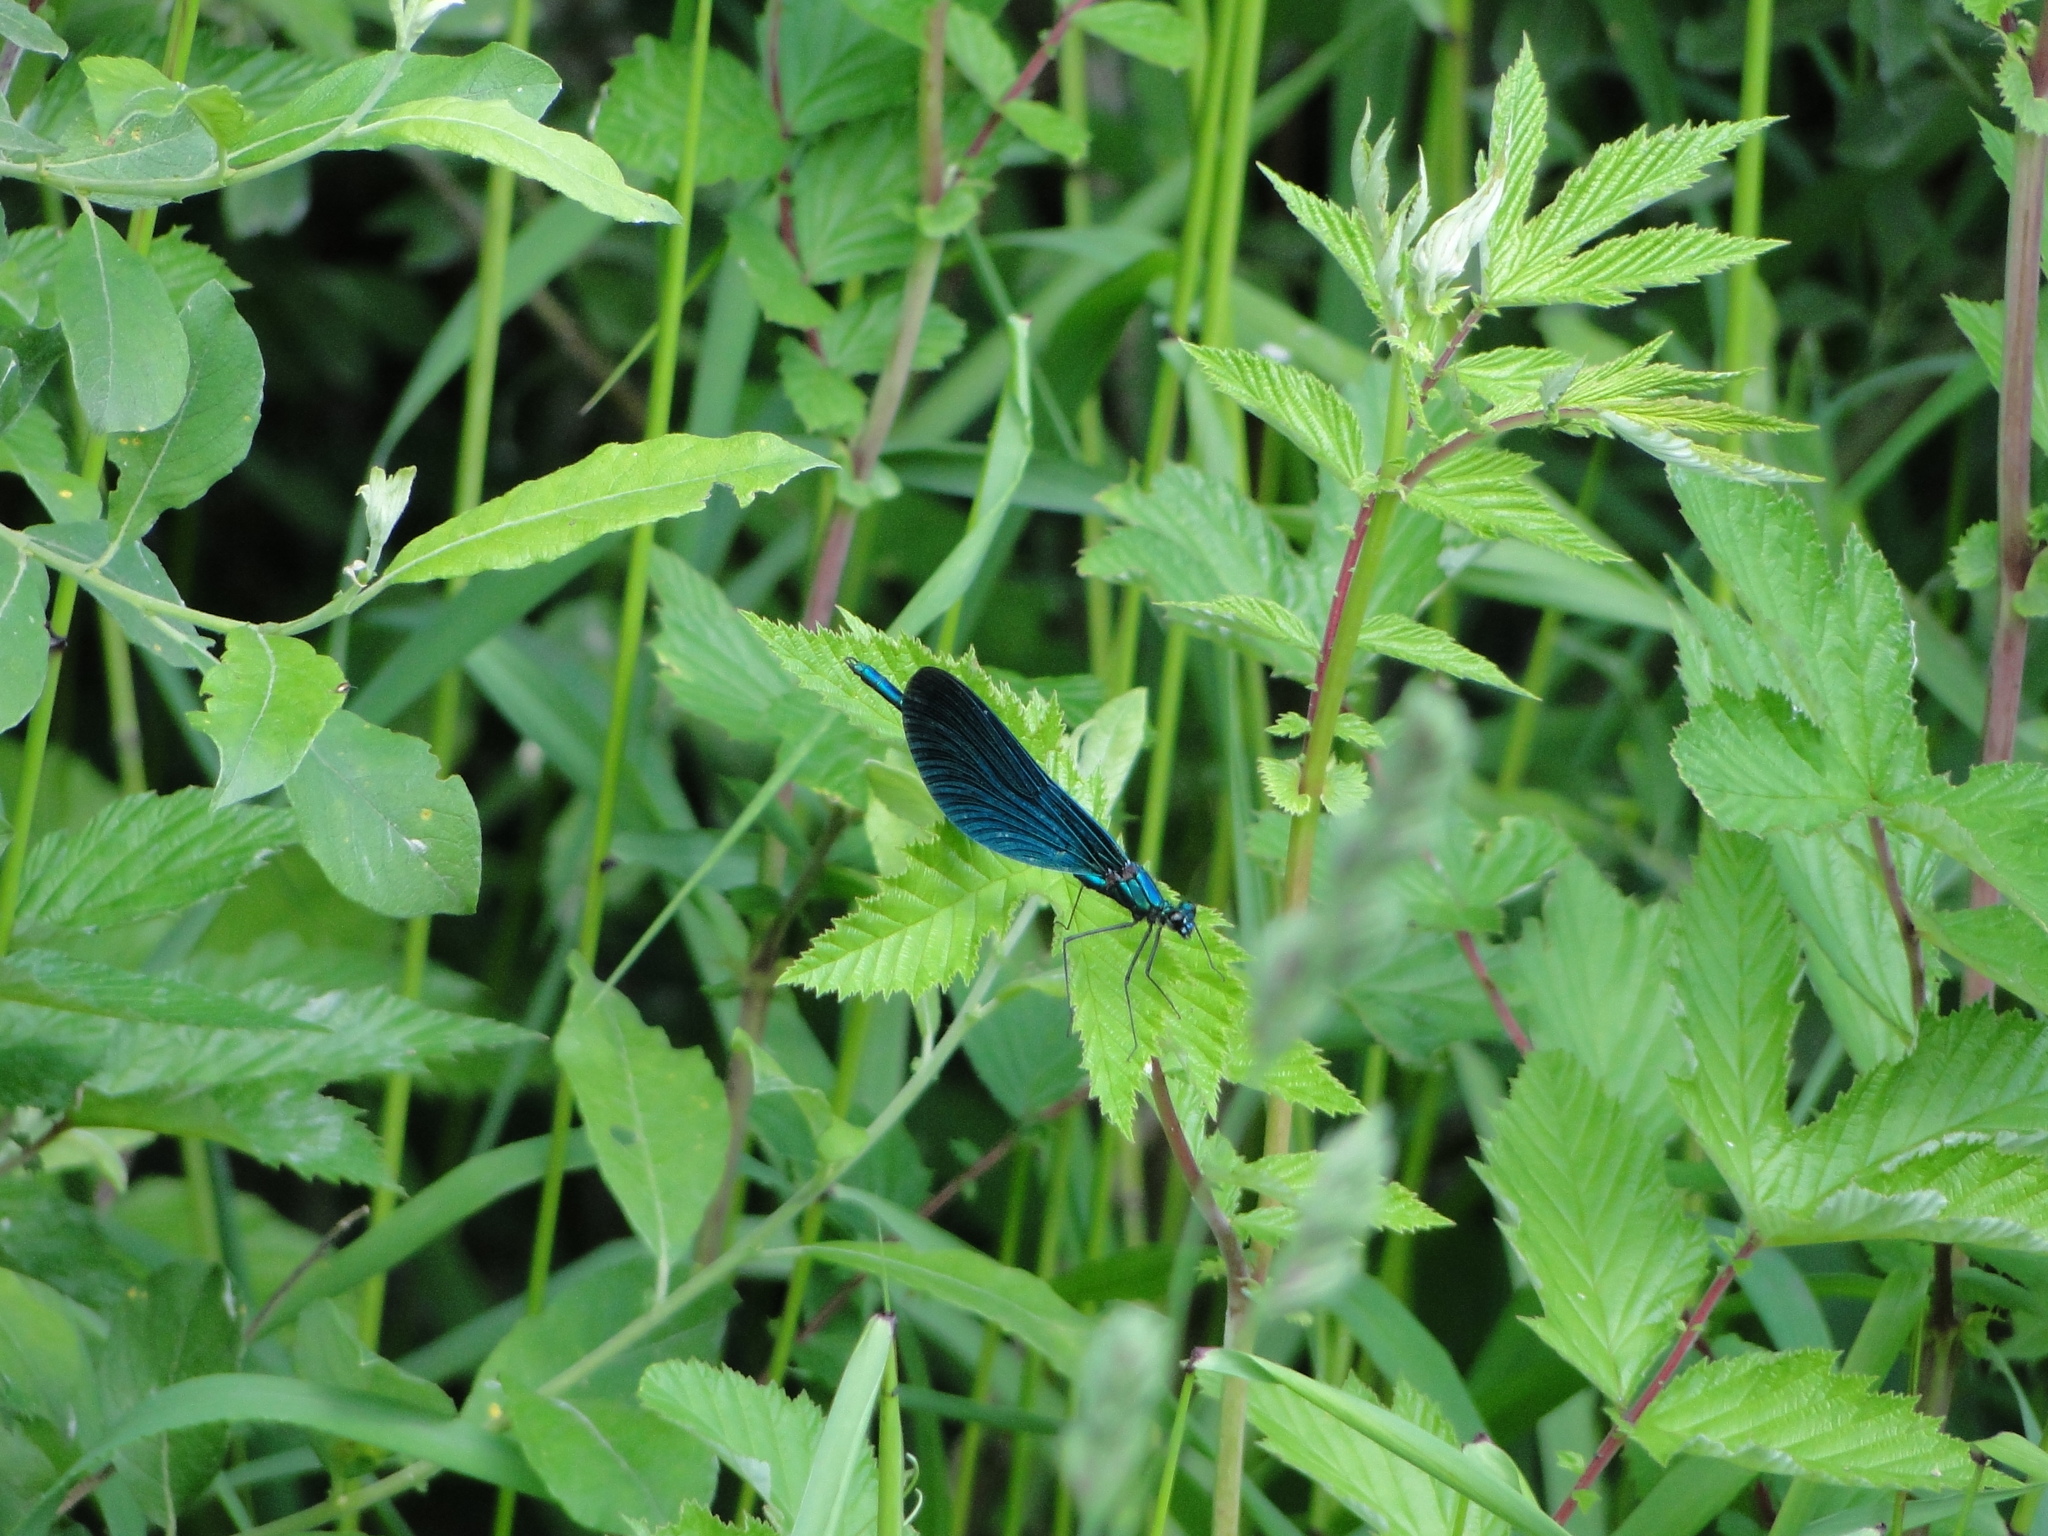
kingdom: Animalia
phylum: Arthropoda
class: Insecta
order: Odonata
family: Calopterygidae
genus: Calopteryx
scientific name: Calopteryx virgo
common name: Beautiful demoiselle
